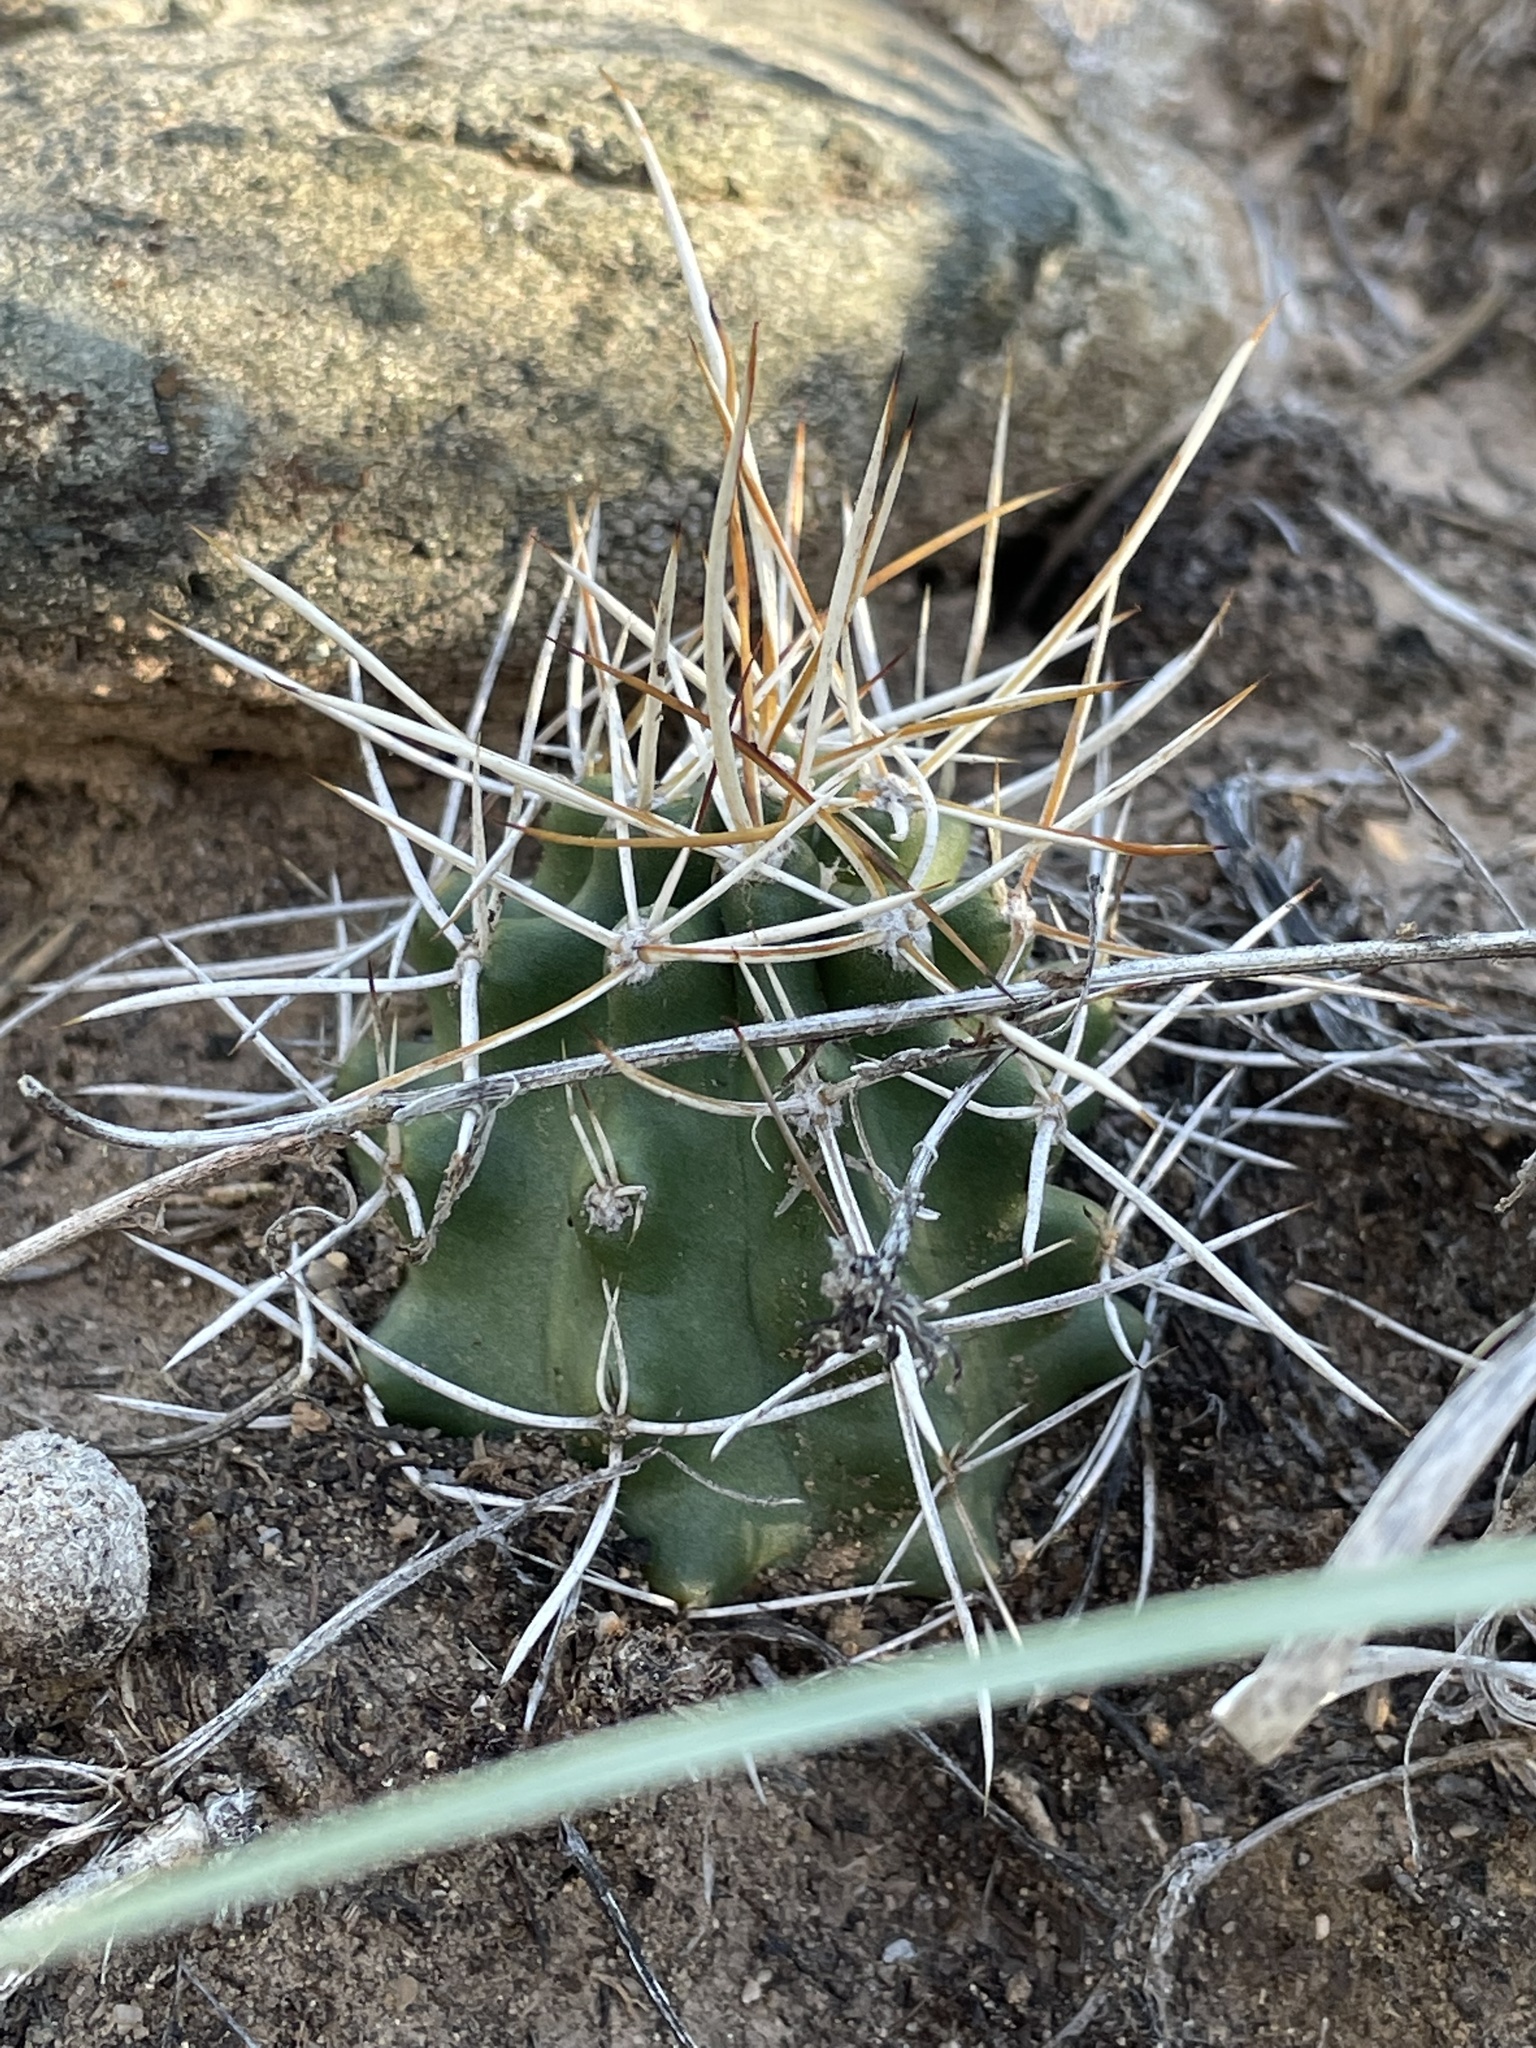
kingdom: Plantae
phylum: Tracheophyta
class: Magnoliopsida
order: Caryophyllales
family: Cactaceae
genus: Echinocereus
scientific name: Echinocereus fendleri
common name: Fendler's hedgehog cactus
